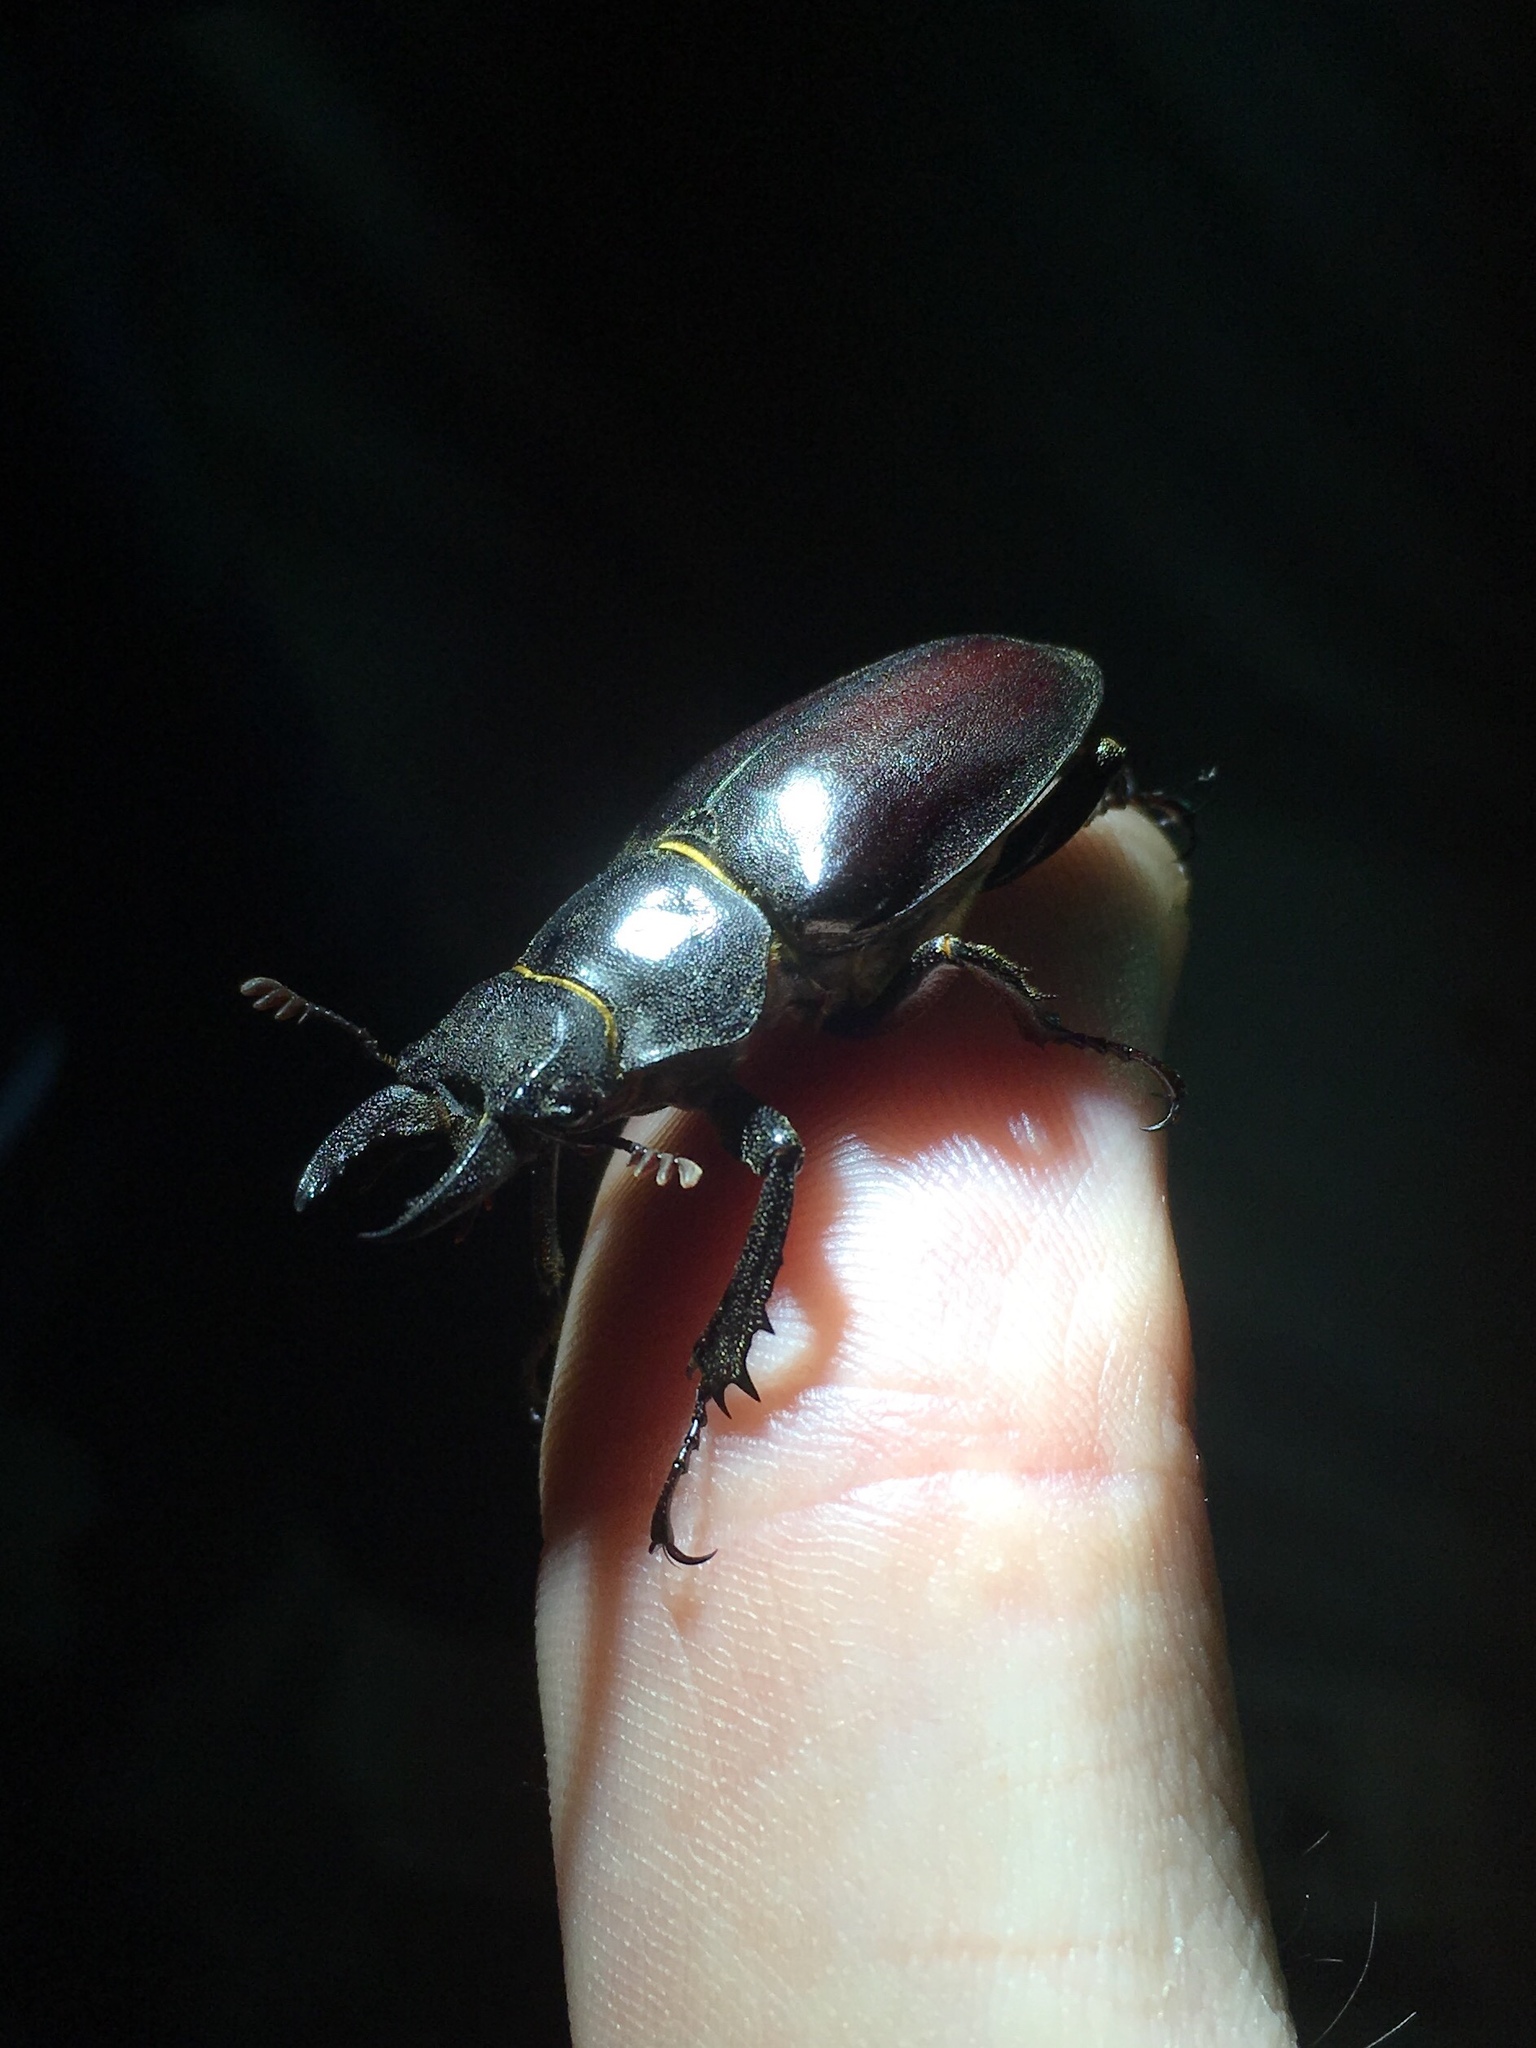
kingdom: Animalia
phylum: Arthropoda
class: Insecta
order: Coleoptera
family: Lucanidae
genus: Lucanus
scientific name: Lucanus placidus
